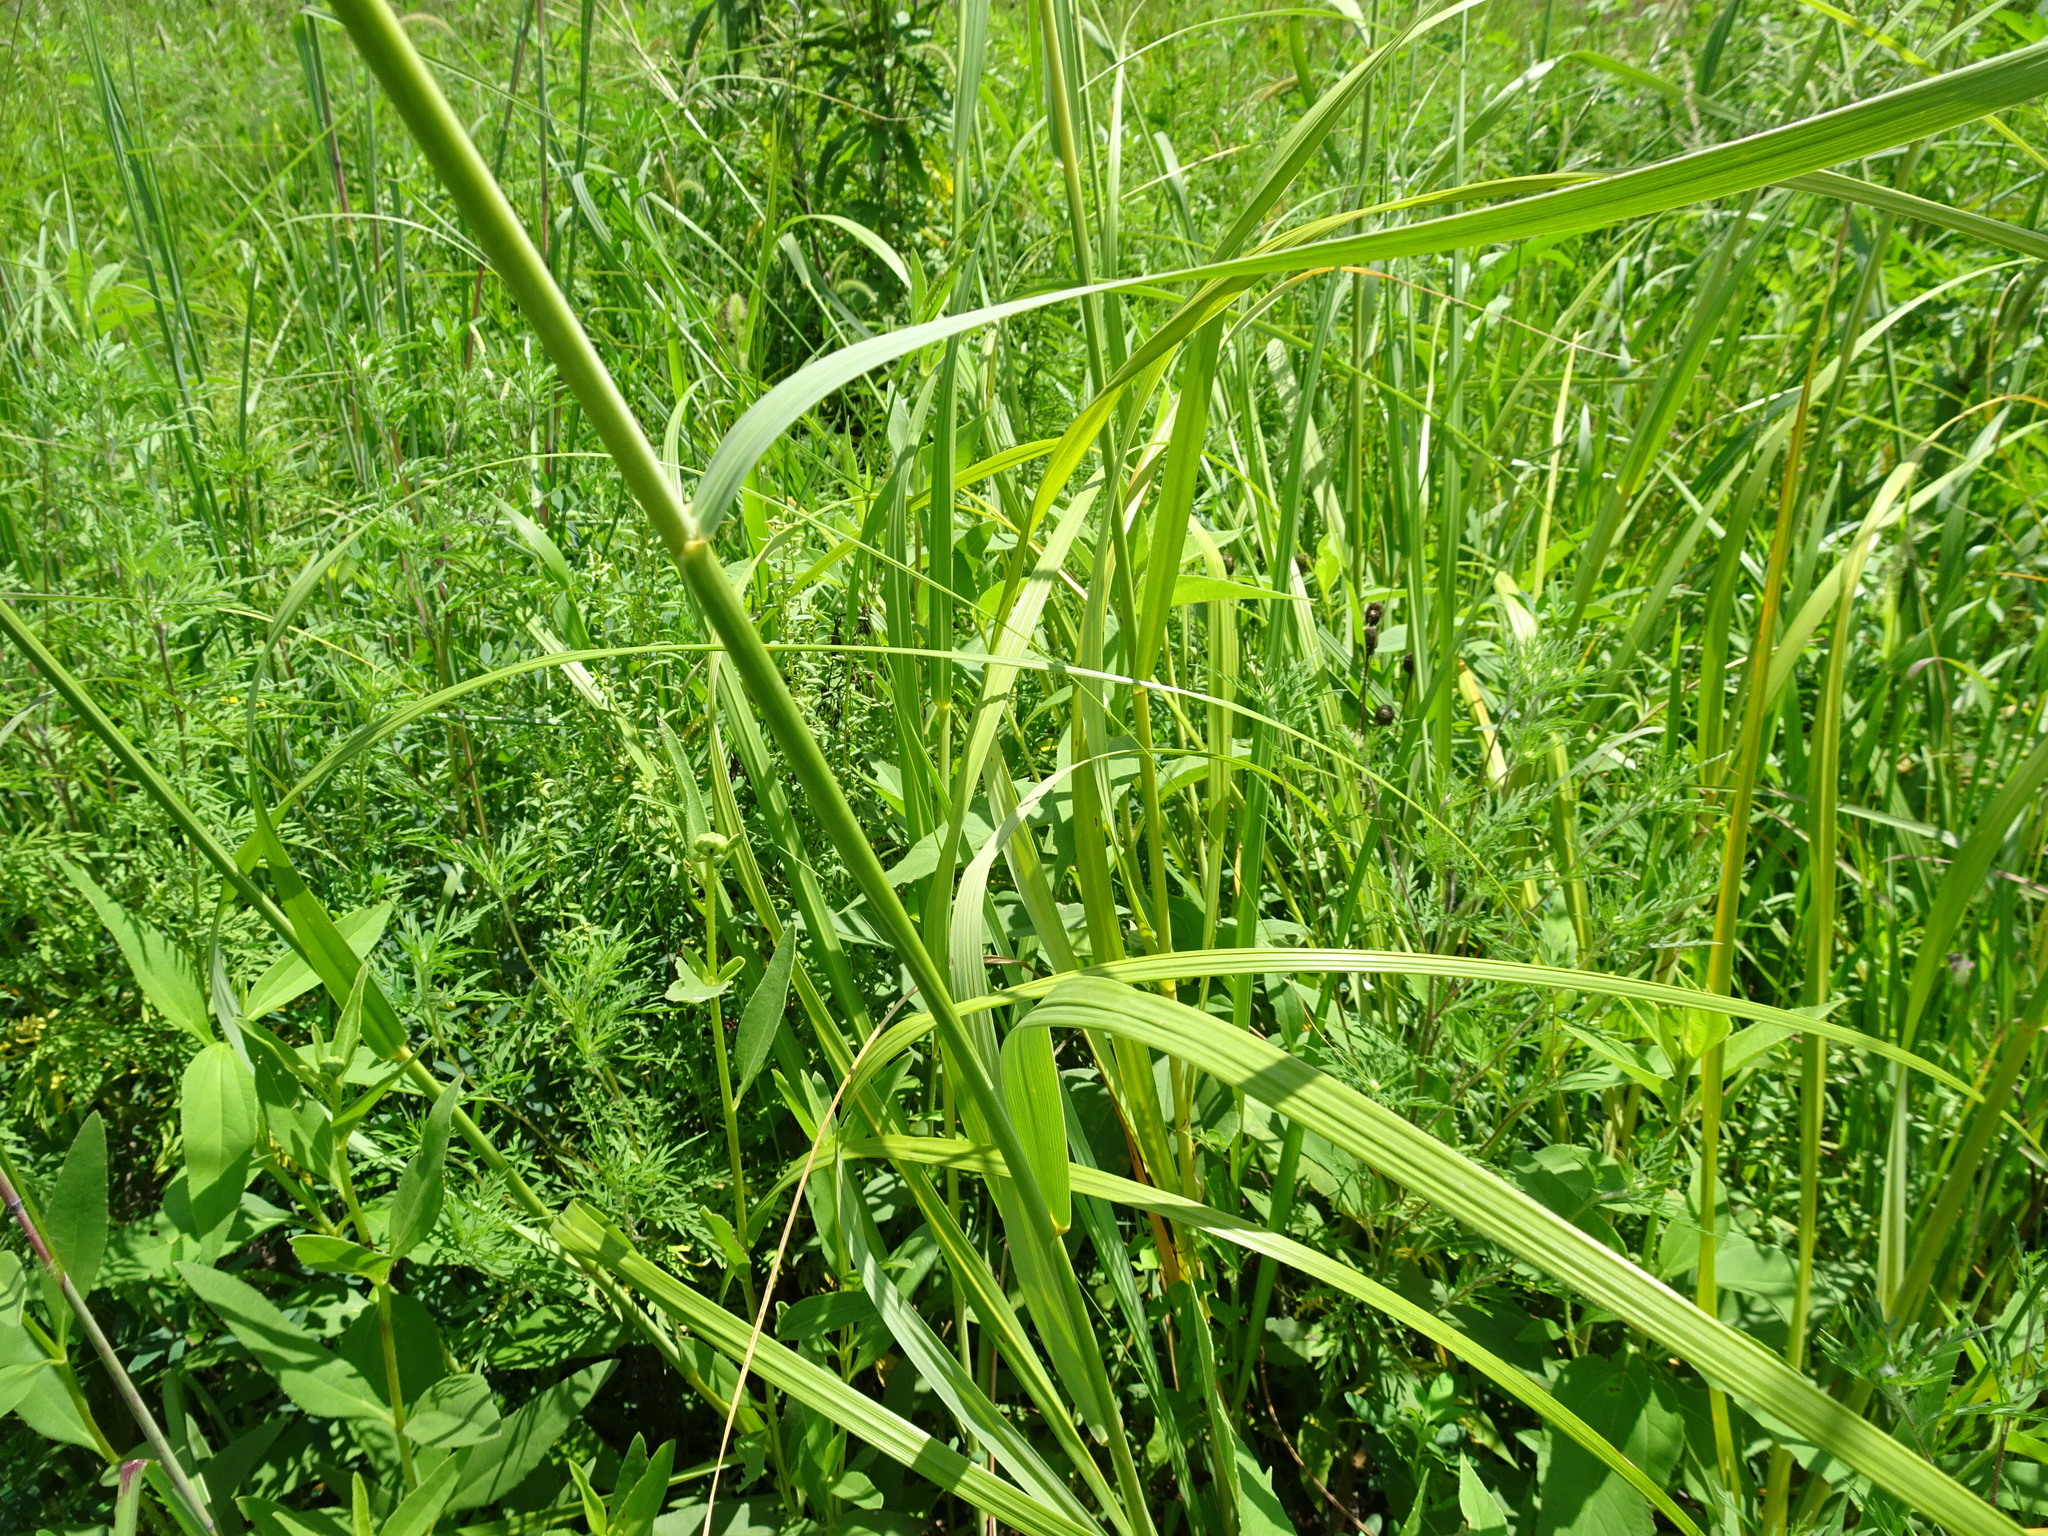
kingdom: Plantae
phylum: Tracheophyta
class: Liliopsida
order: Poales
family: Poaceae
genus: Sporobolus
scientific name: Sporobolus michauxianus
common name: Freshwater cordgrass
